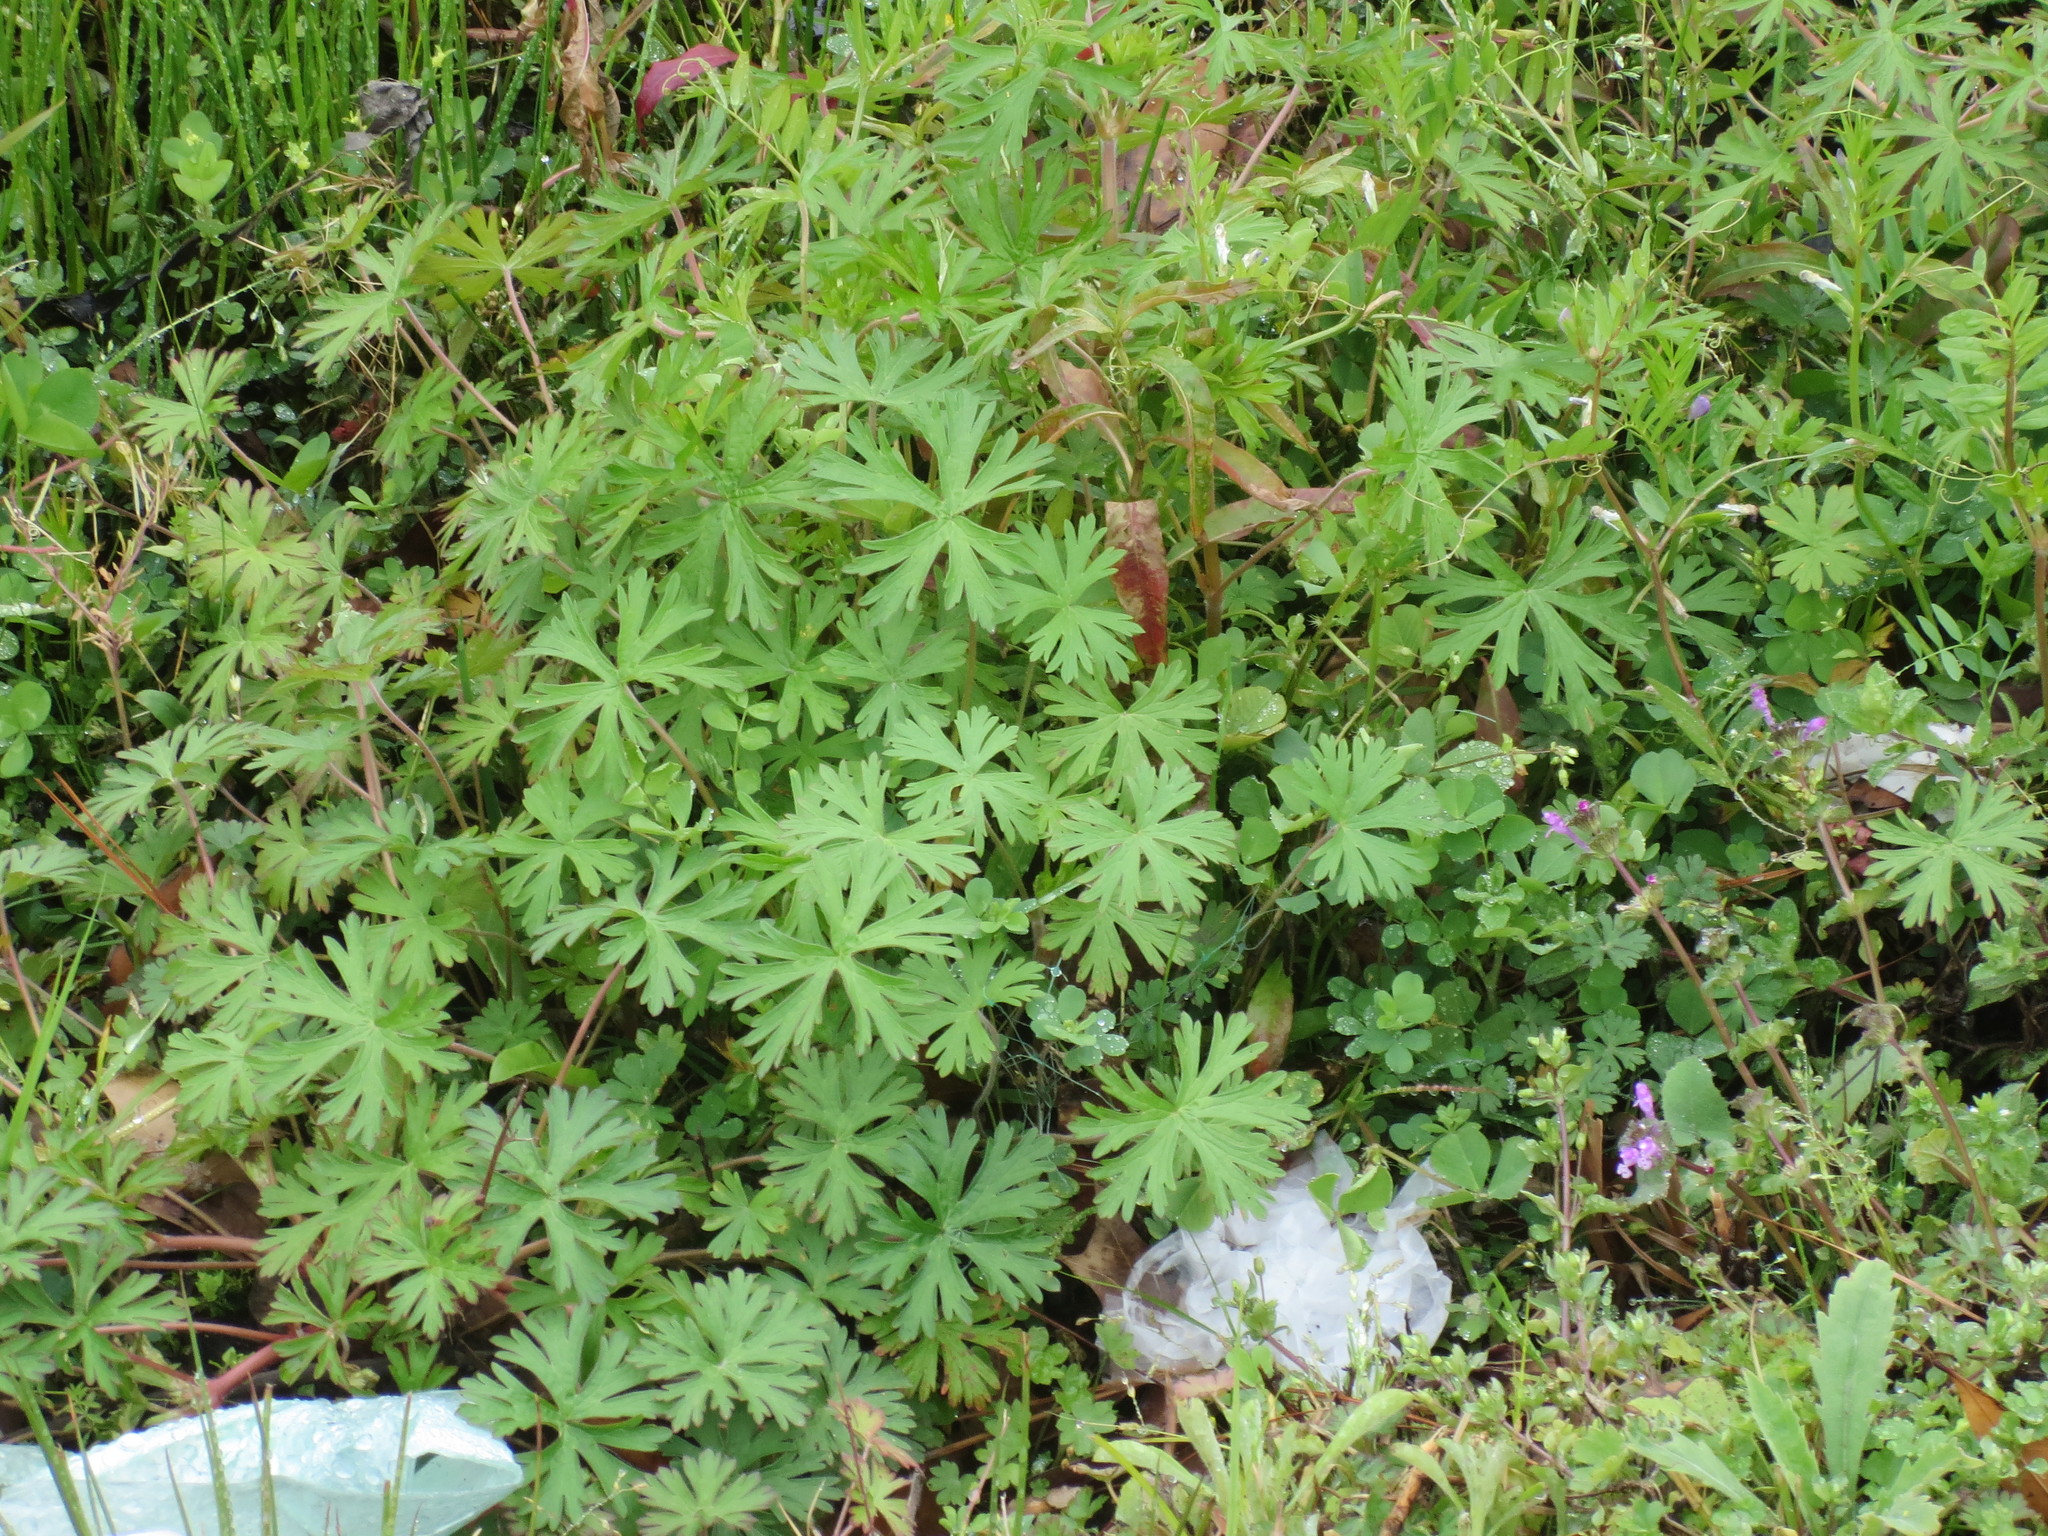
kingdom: Plantae
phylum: Tracheophyta
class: Magnoliopsida
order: Geraniales
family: Geraniaceae
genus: Geranium
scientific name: Geranium carolinianum
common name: Carolina crane's-bill
